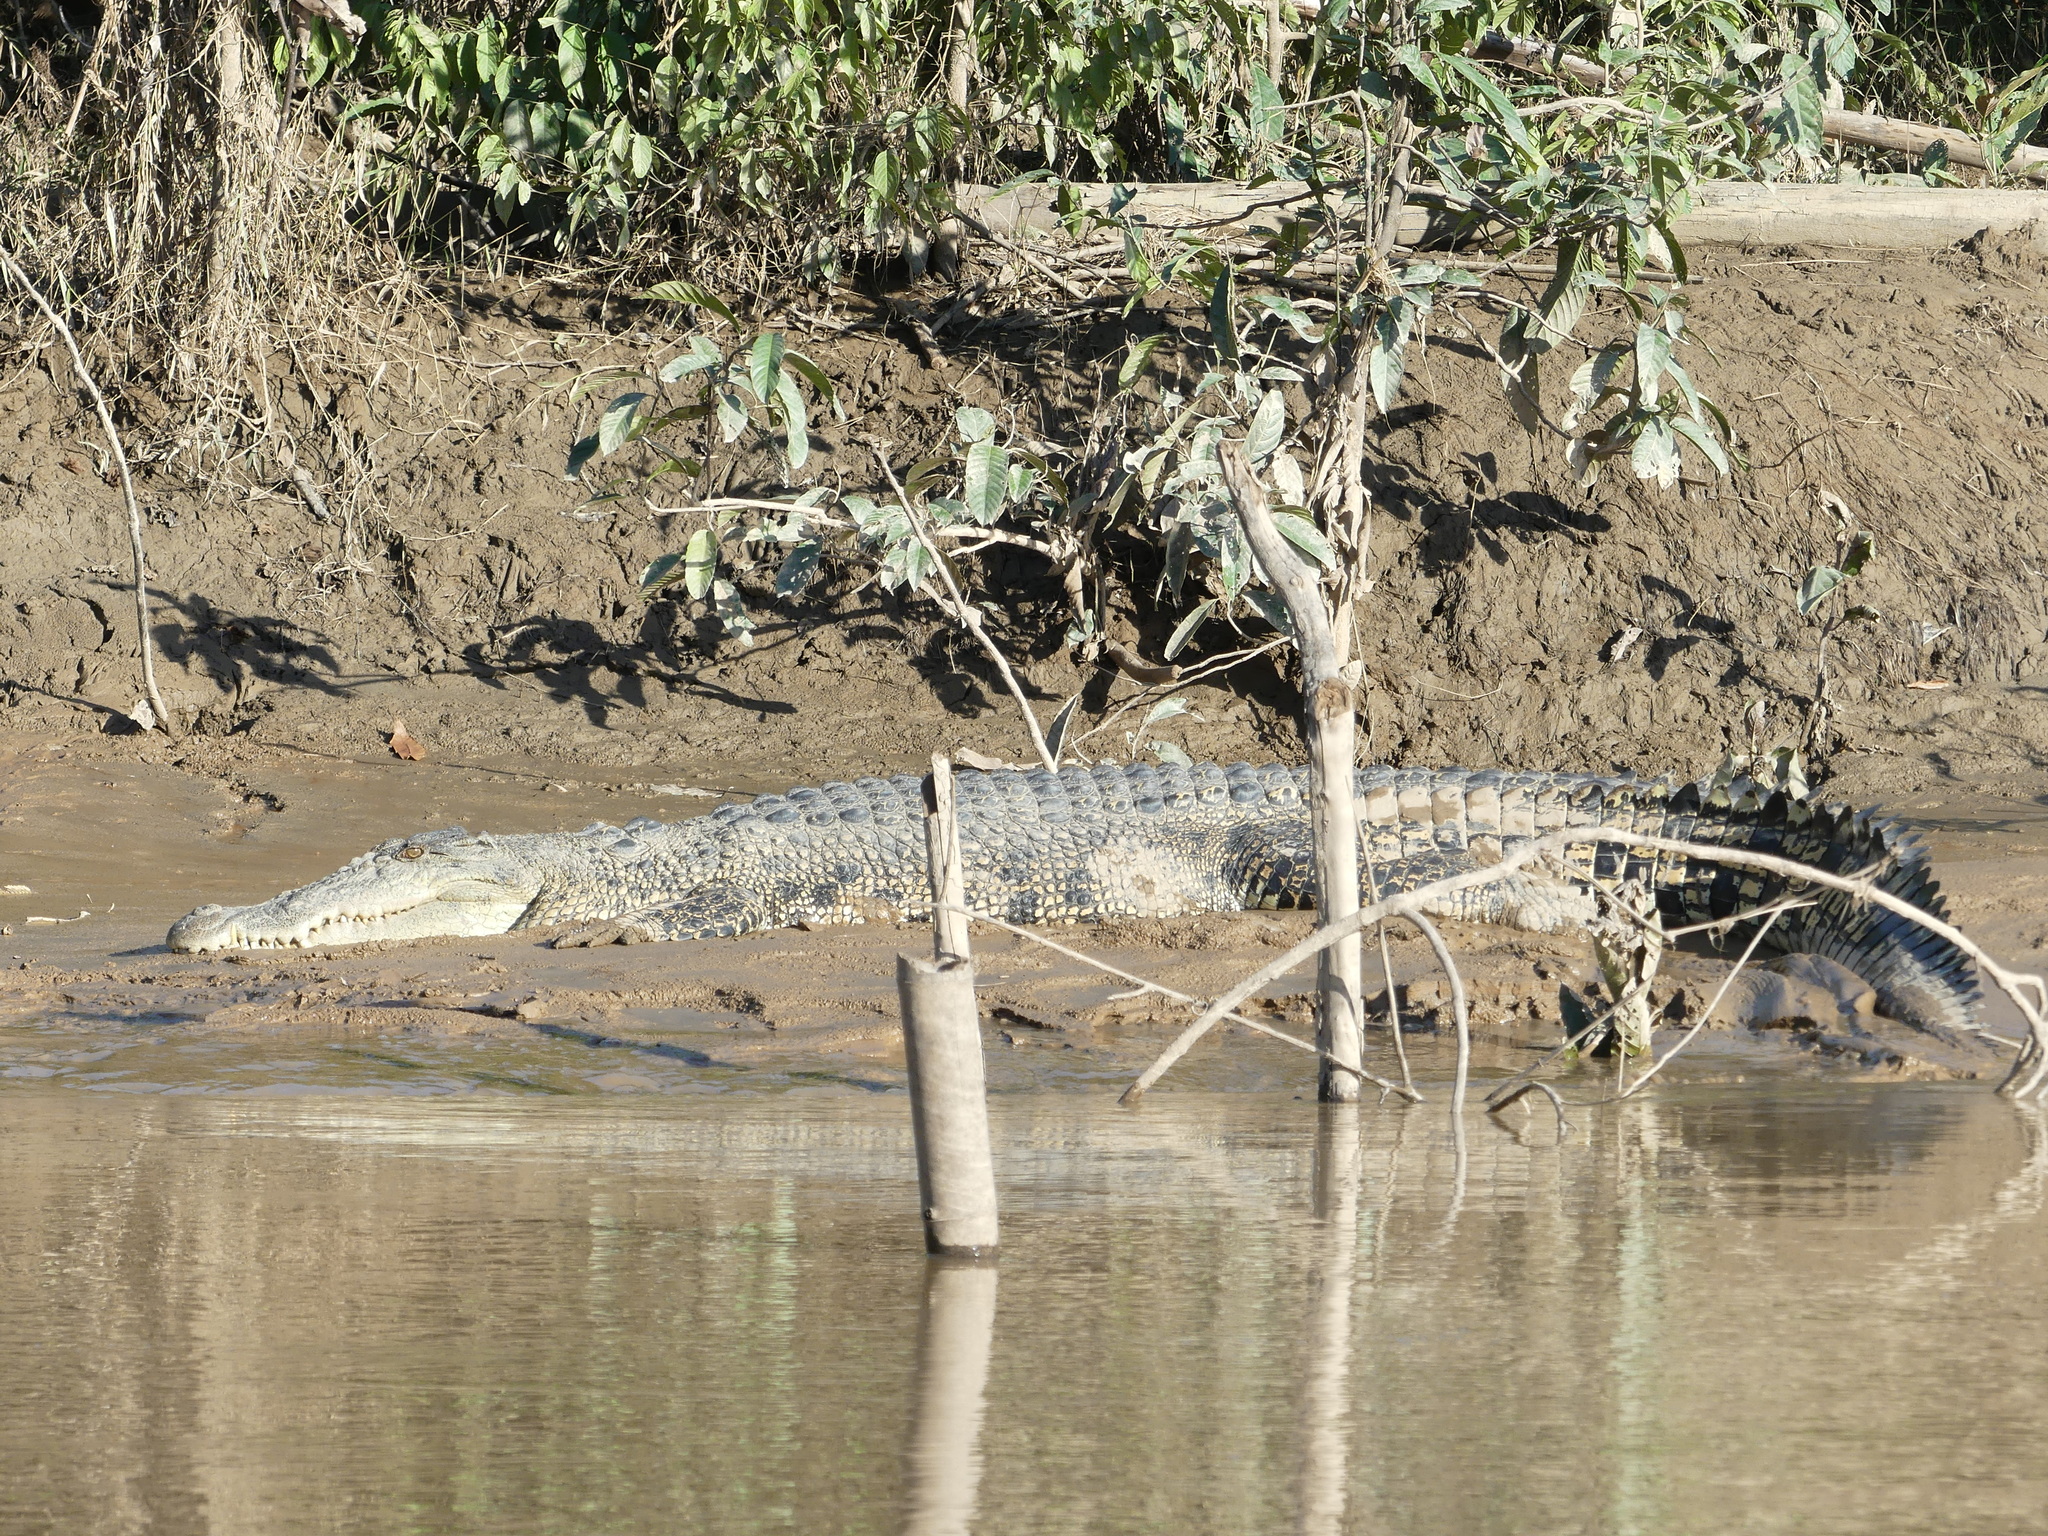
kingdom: Animalia
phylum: Chordata
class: Crocodylia
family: Crocodylidae
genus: Crocodylus
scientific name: Crocodylus porosus
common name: Saltwater crocodile
